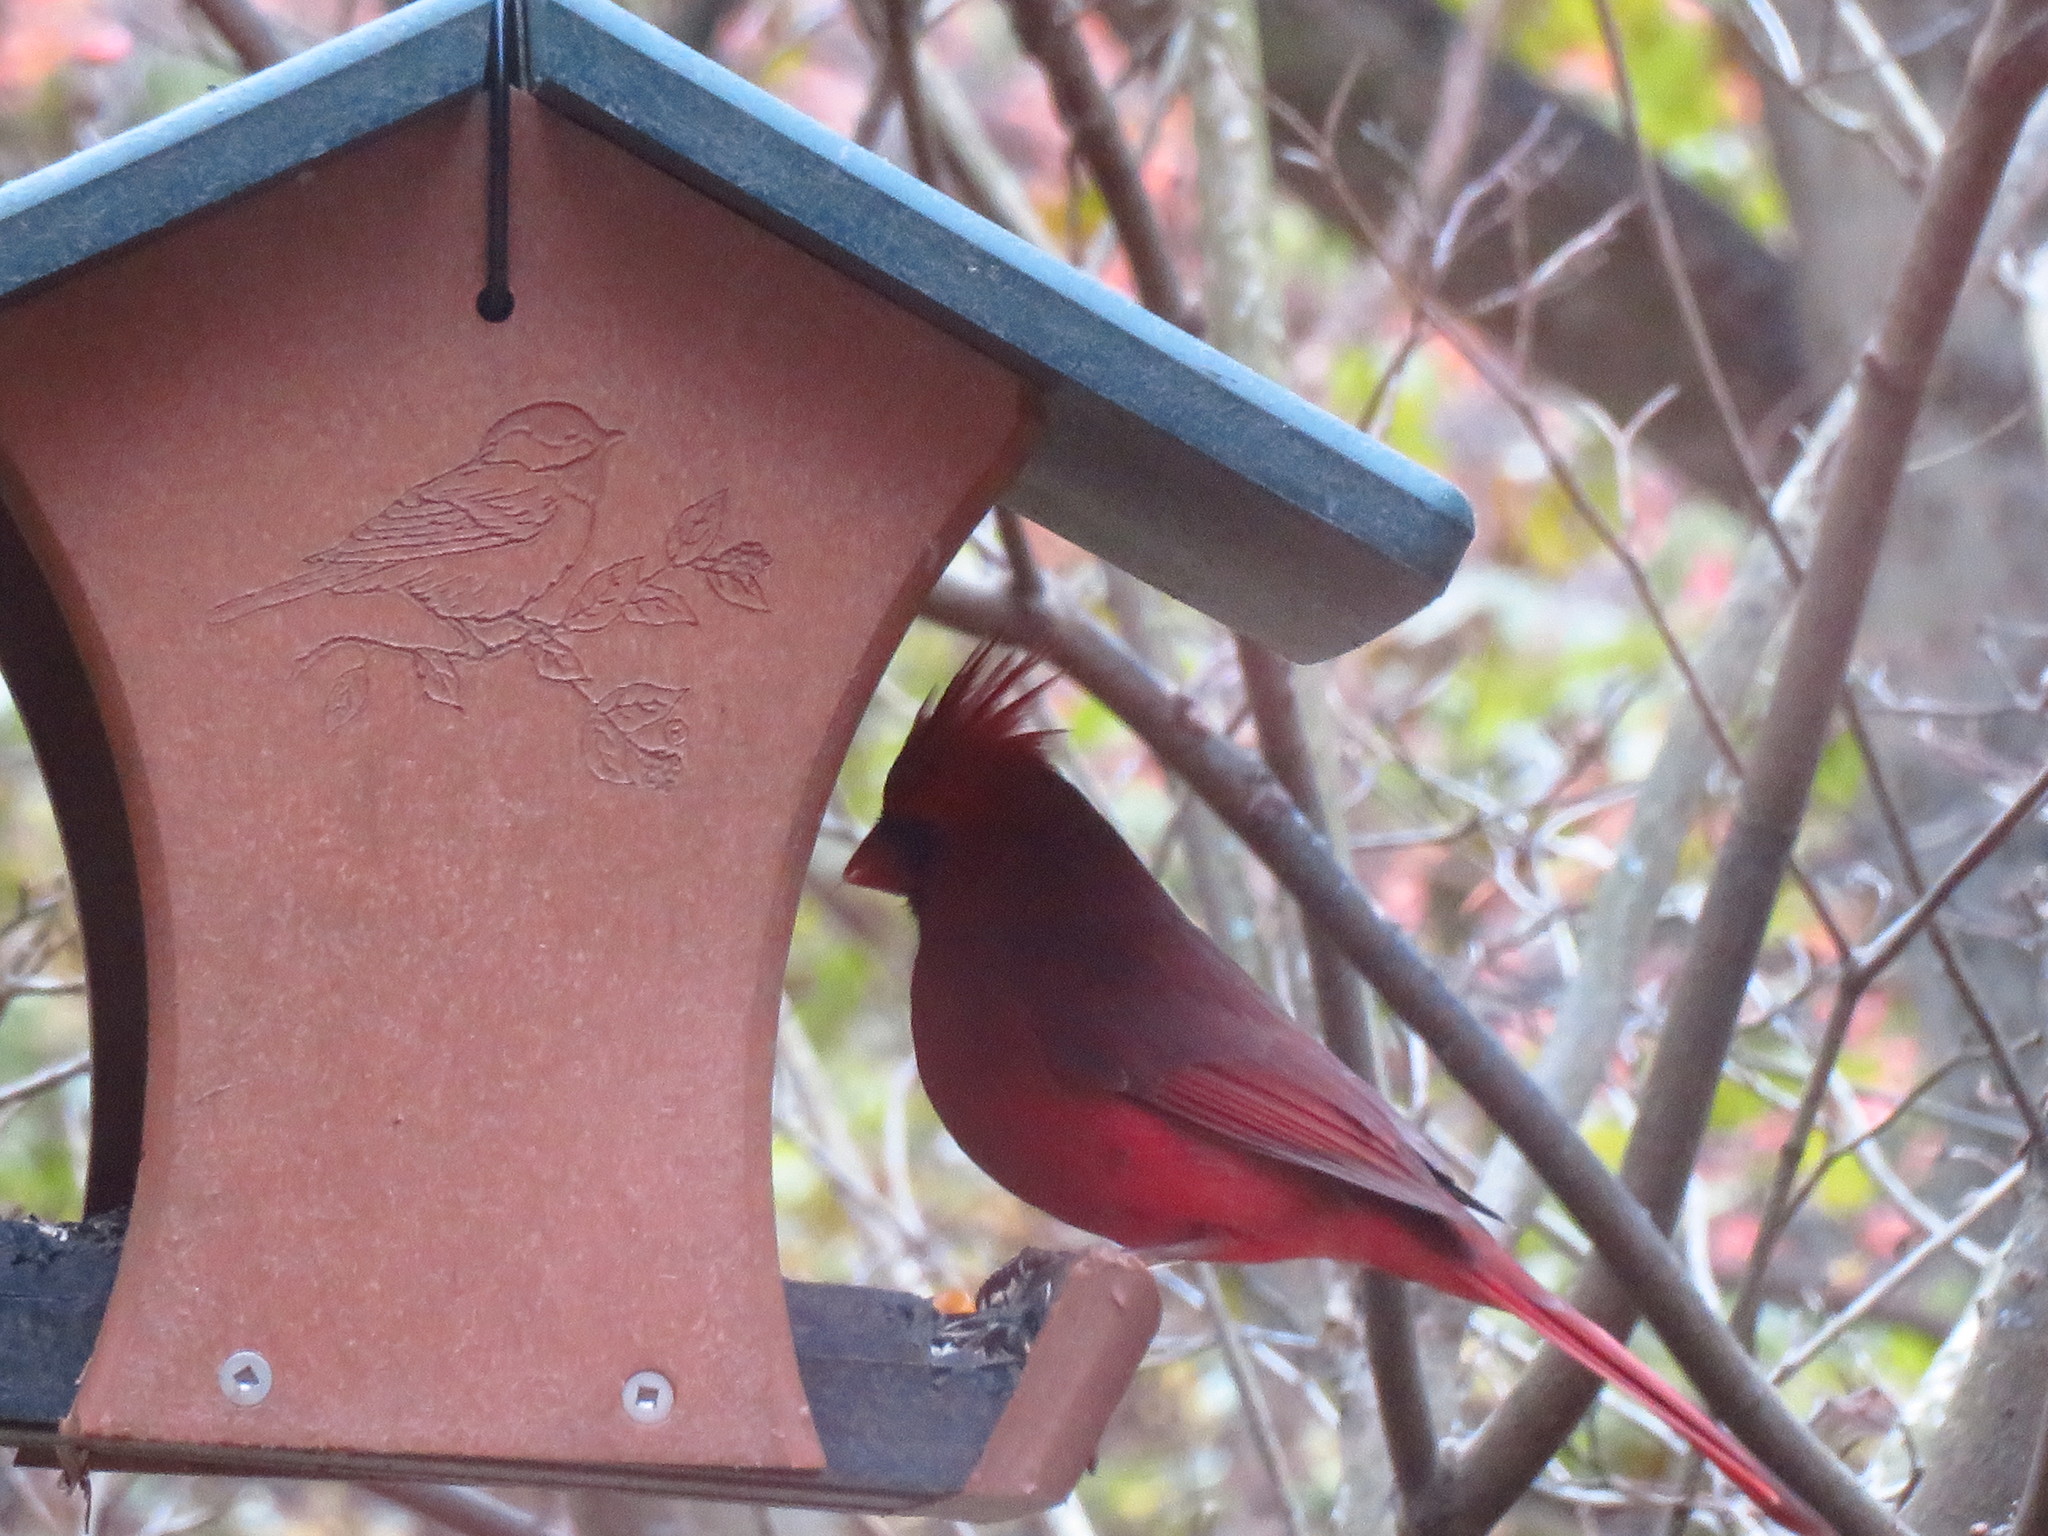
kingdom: Animalia
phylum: Chordata
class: Aves
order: Passeriformes
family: Cardinalidae
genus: Cardinalis
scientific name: Cardinalis cardinalis
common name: Northern cardinal
